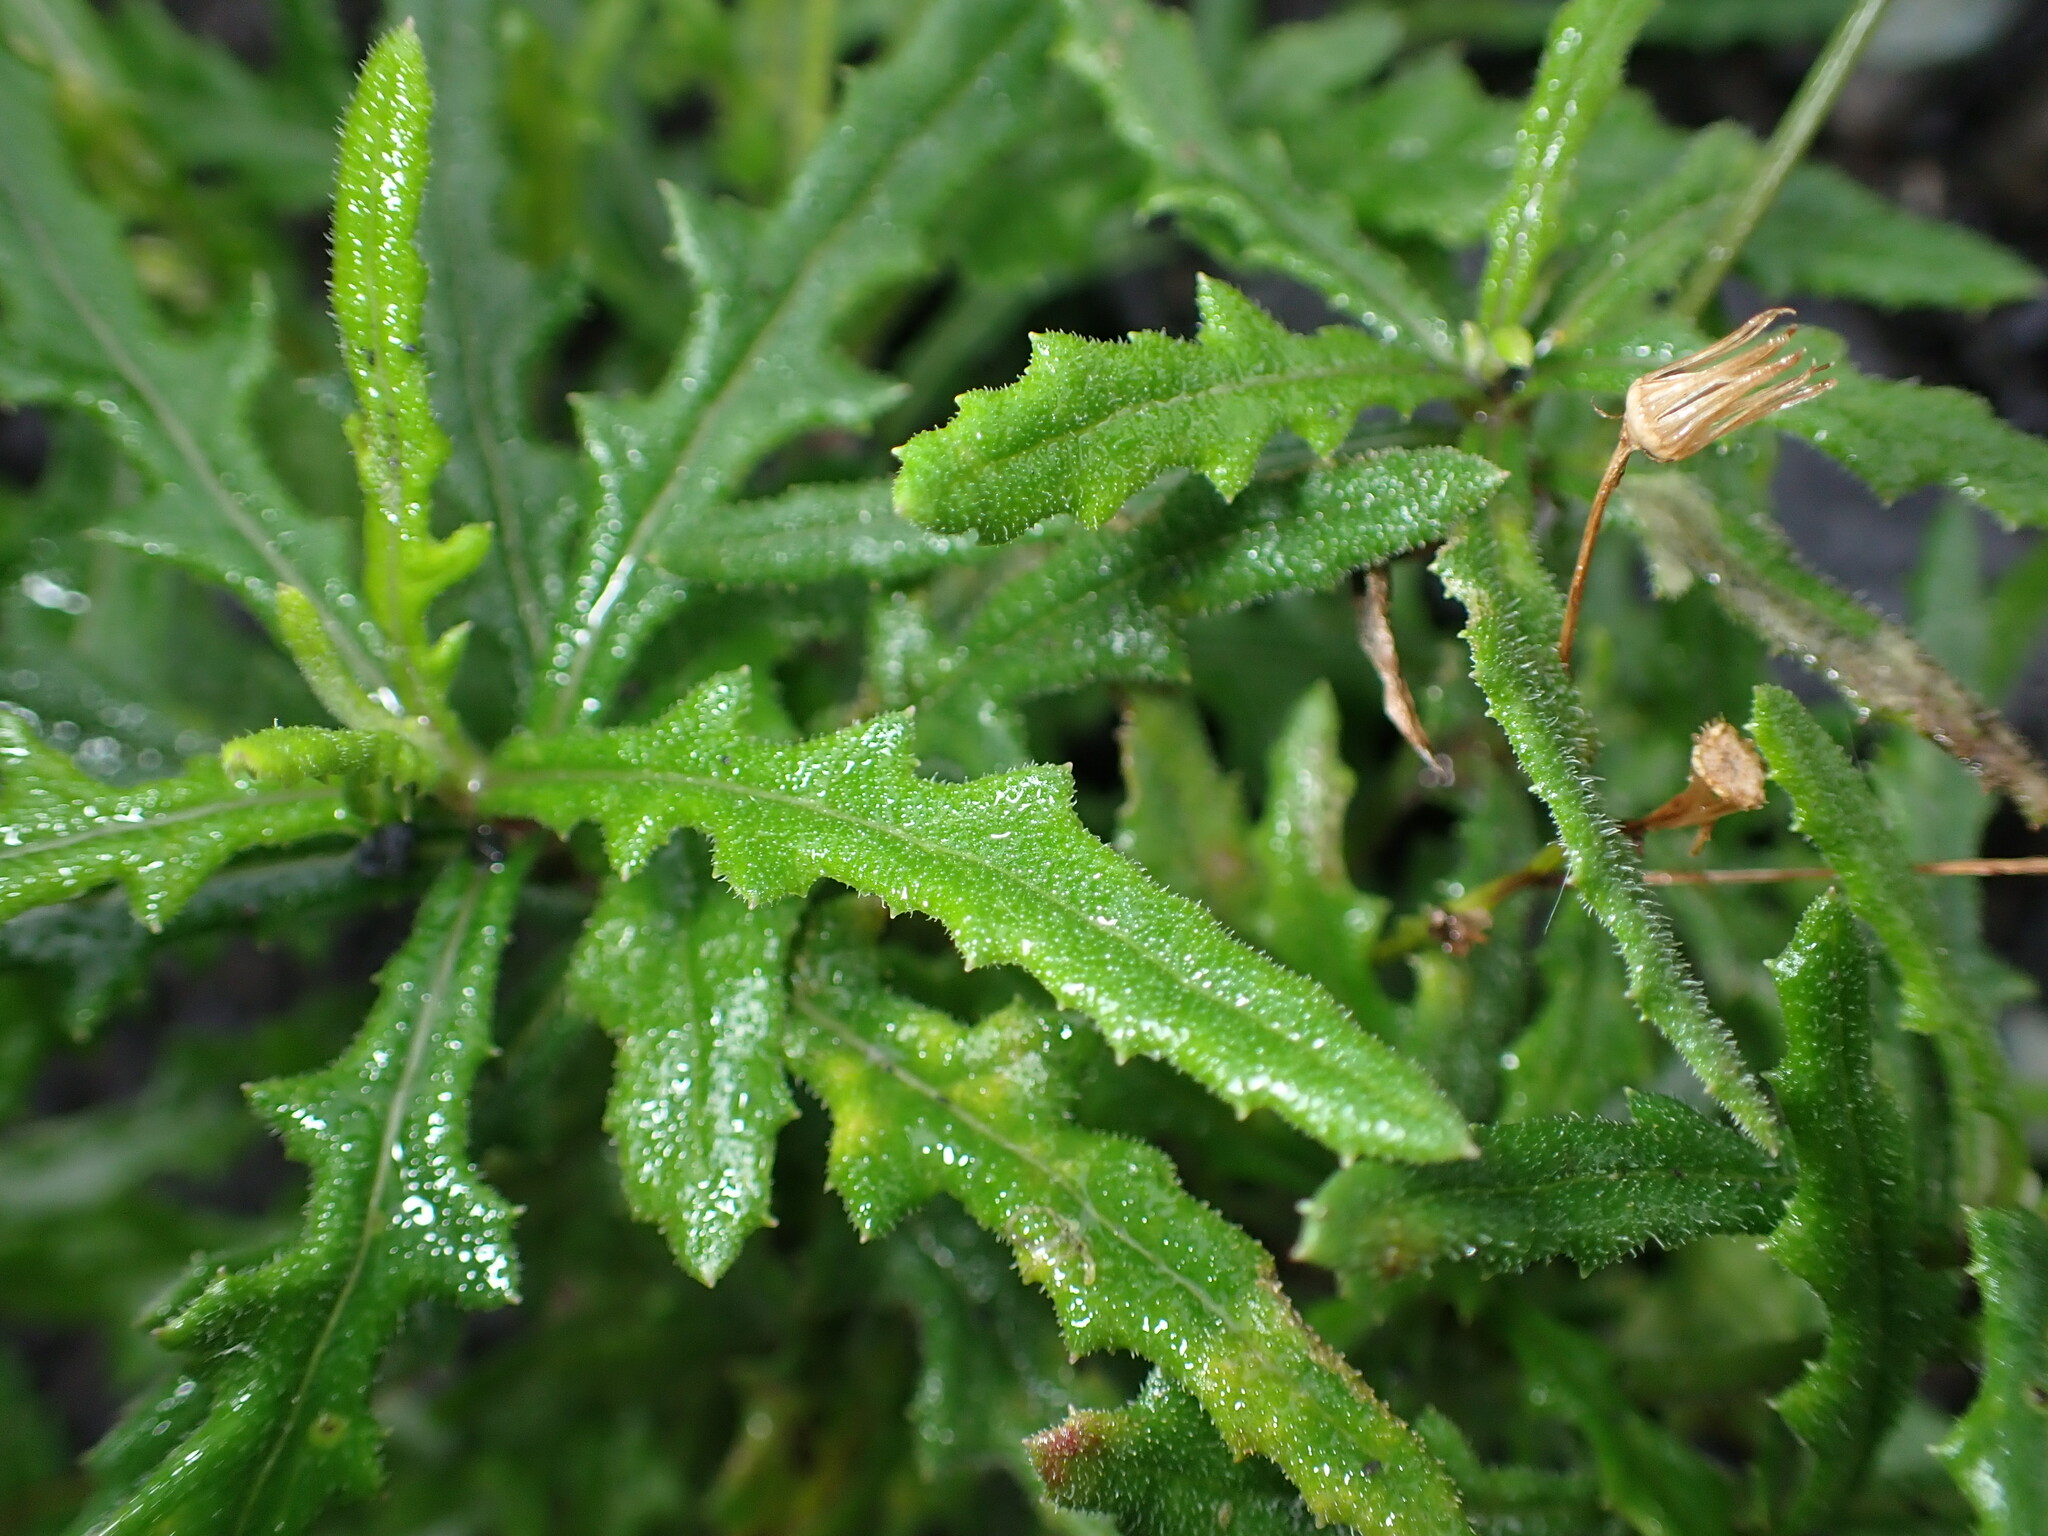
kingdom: Plantae
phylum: Tracheophyta
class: Magnoliopsida
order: Asterales
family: Asteraceae
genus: Senecio
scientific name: Senecio hispidulus
